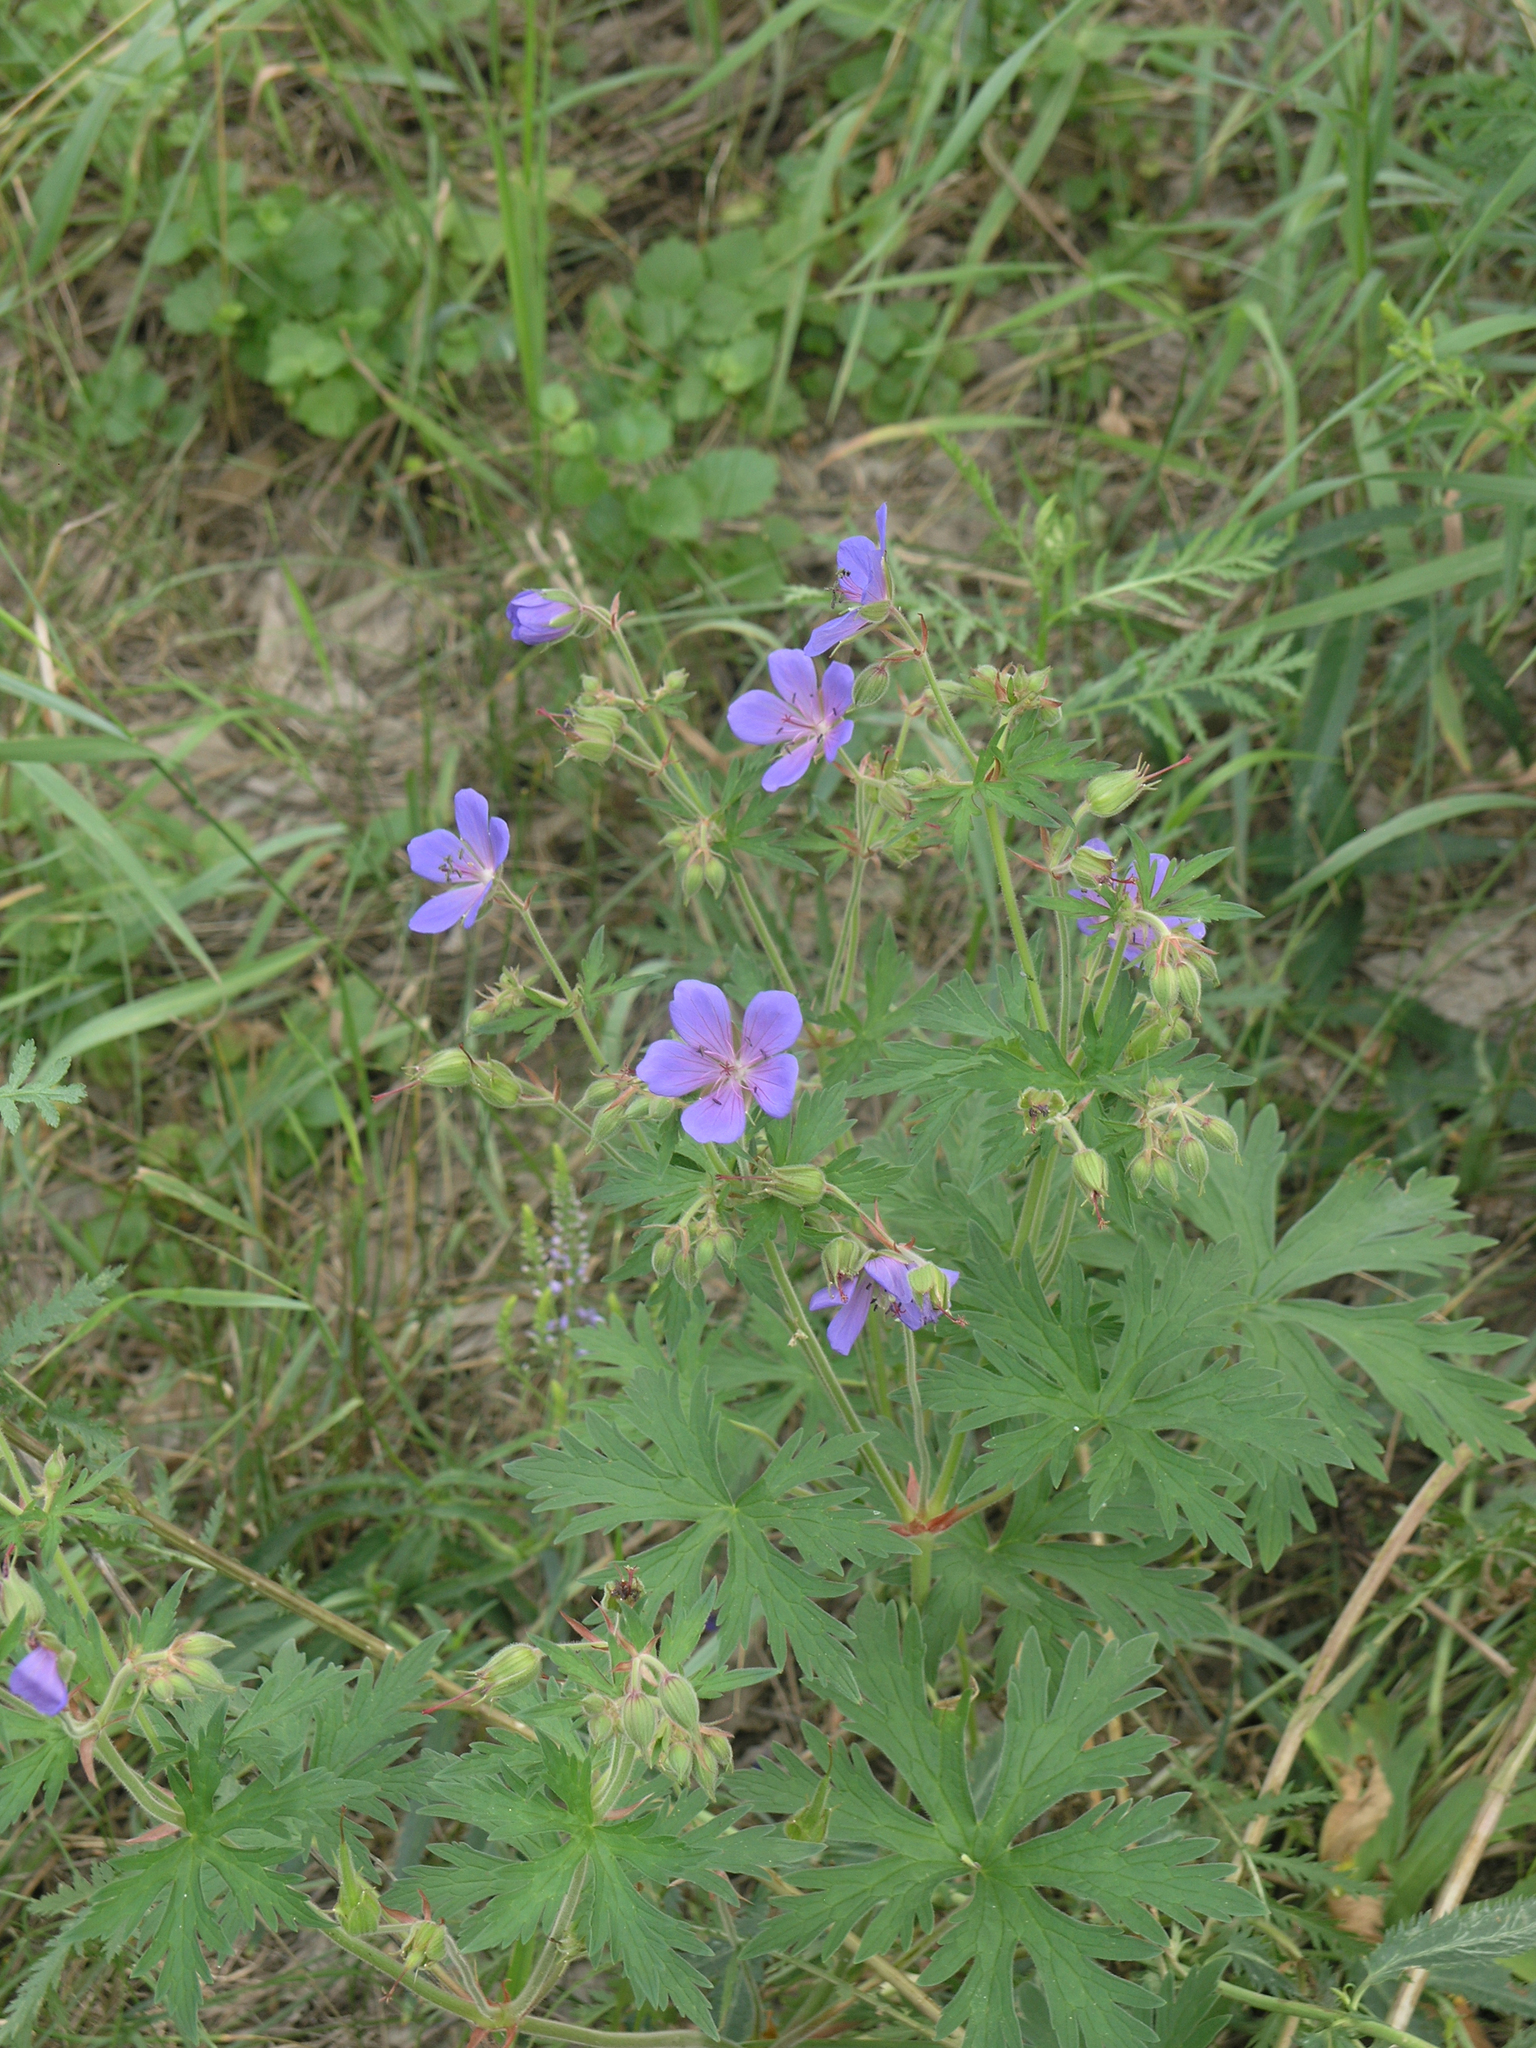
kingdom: Plantae
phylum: Tracheophyta
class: Magnoliopsida
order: Geraniales
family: Geraniaceae
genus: Geranium
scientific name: Geranium pratense
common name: Meadow crane's-bill
